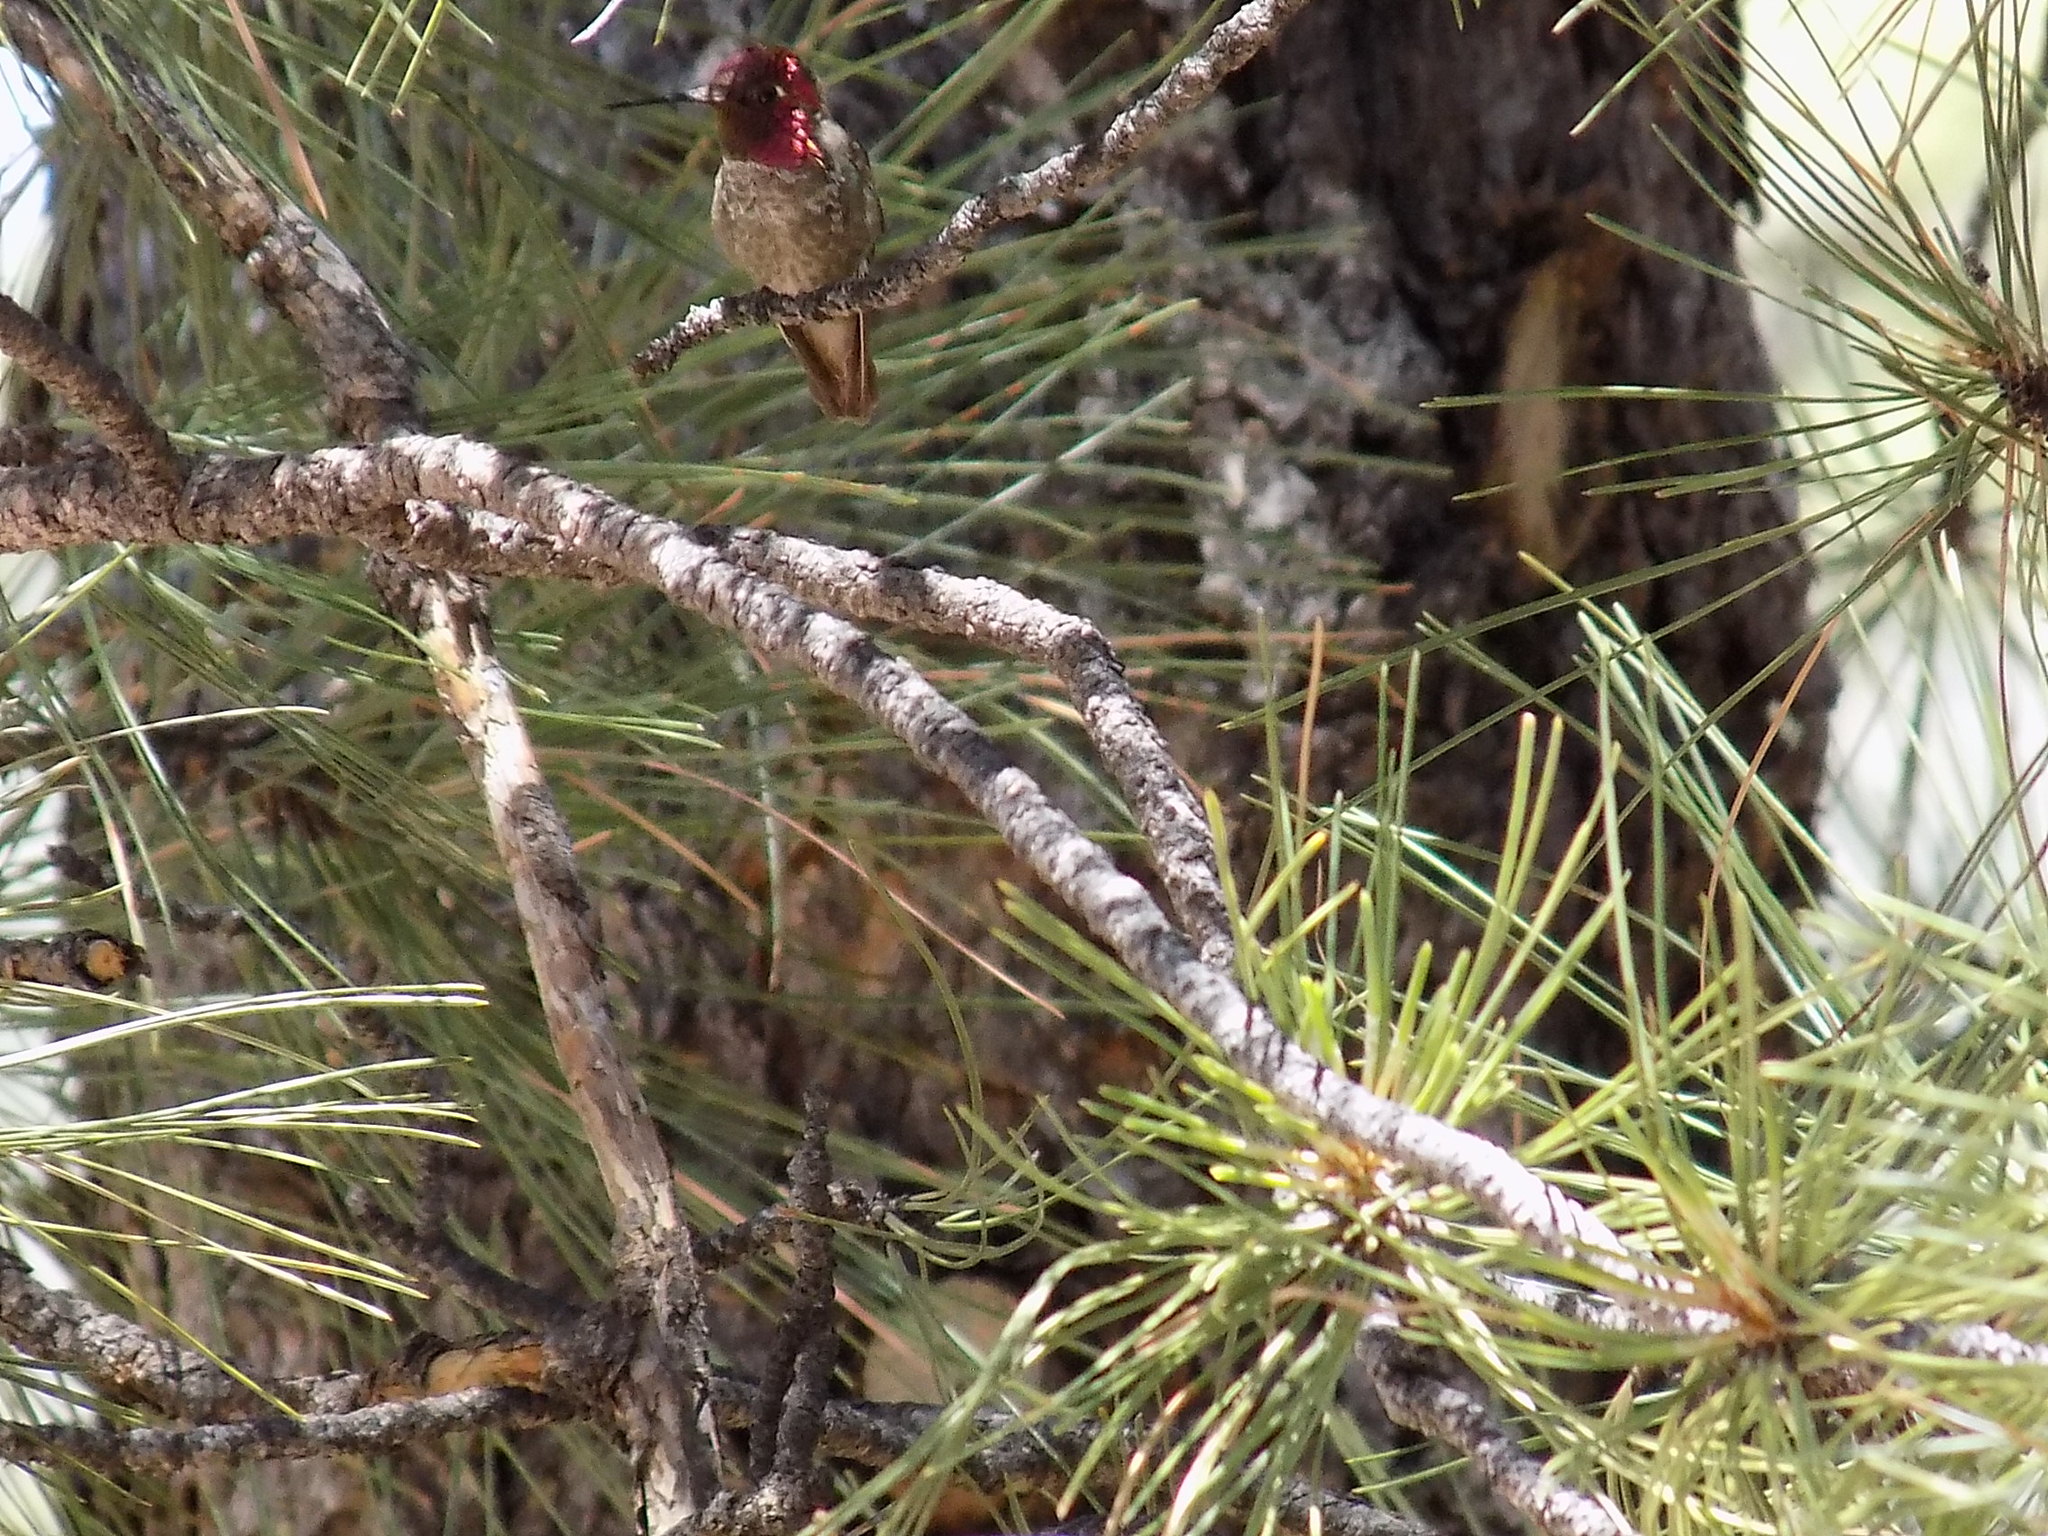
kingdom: Animalia
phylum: Chordata
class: Aves
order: Apodiformes
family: Trochilidae
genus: Calypte
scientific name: Calypte anna
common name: Anna's hummingbird
